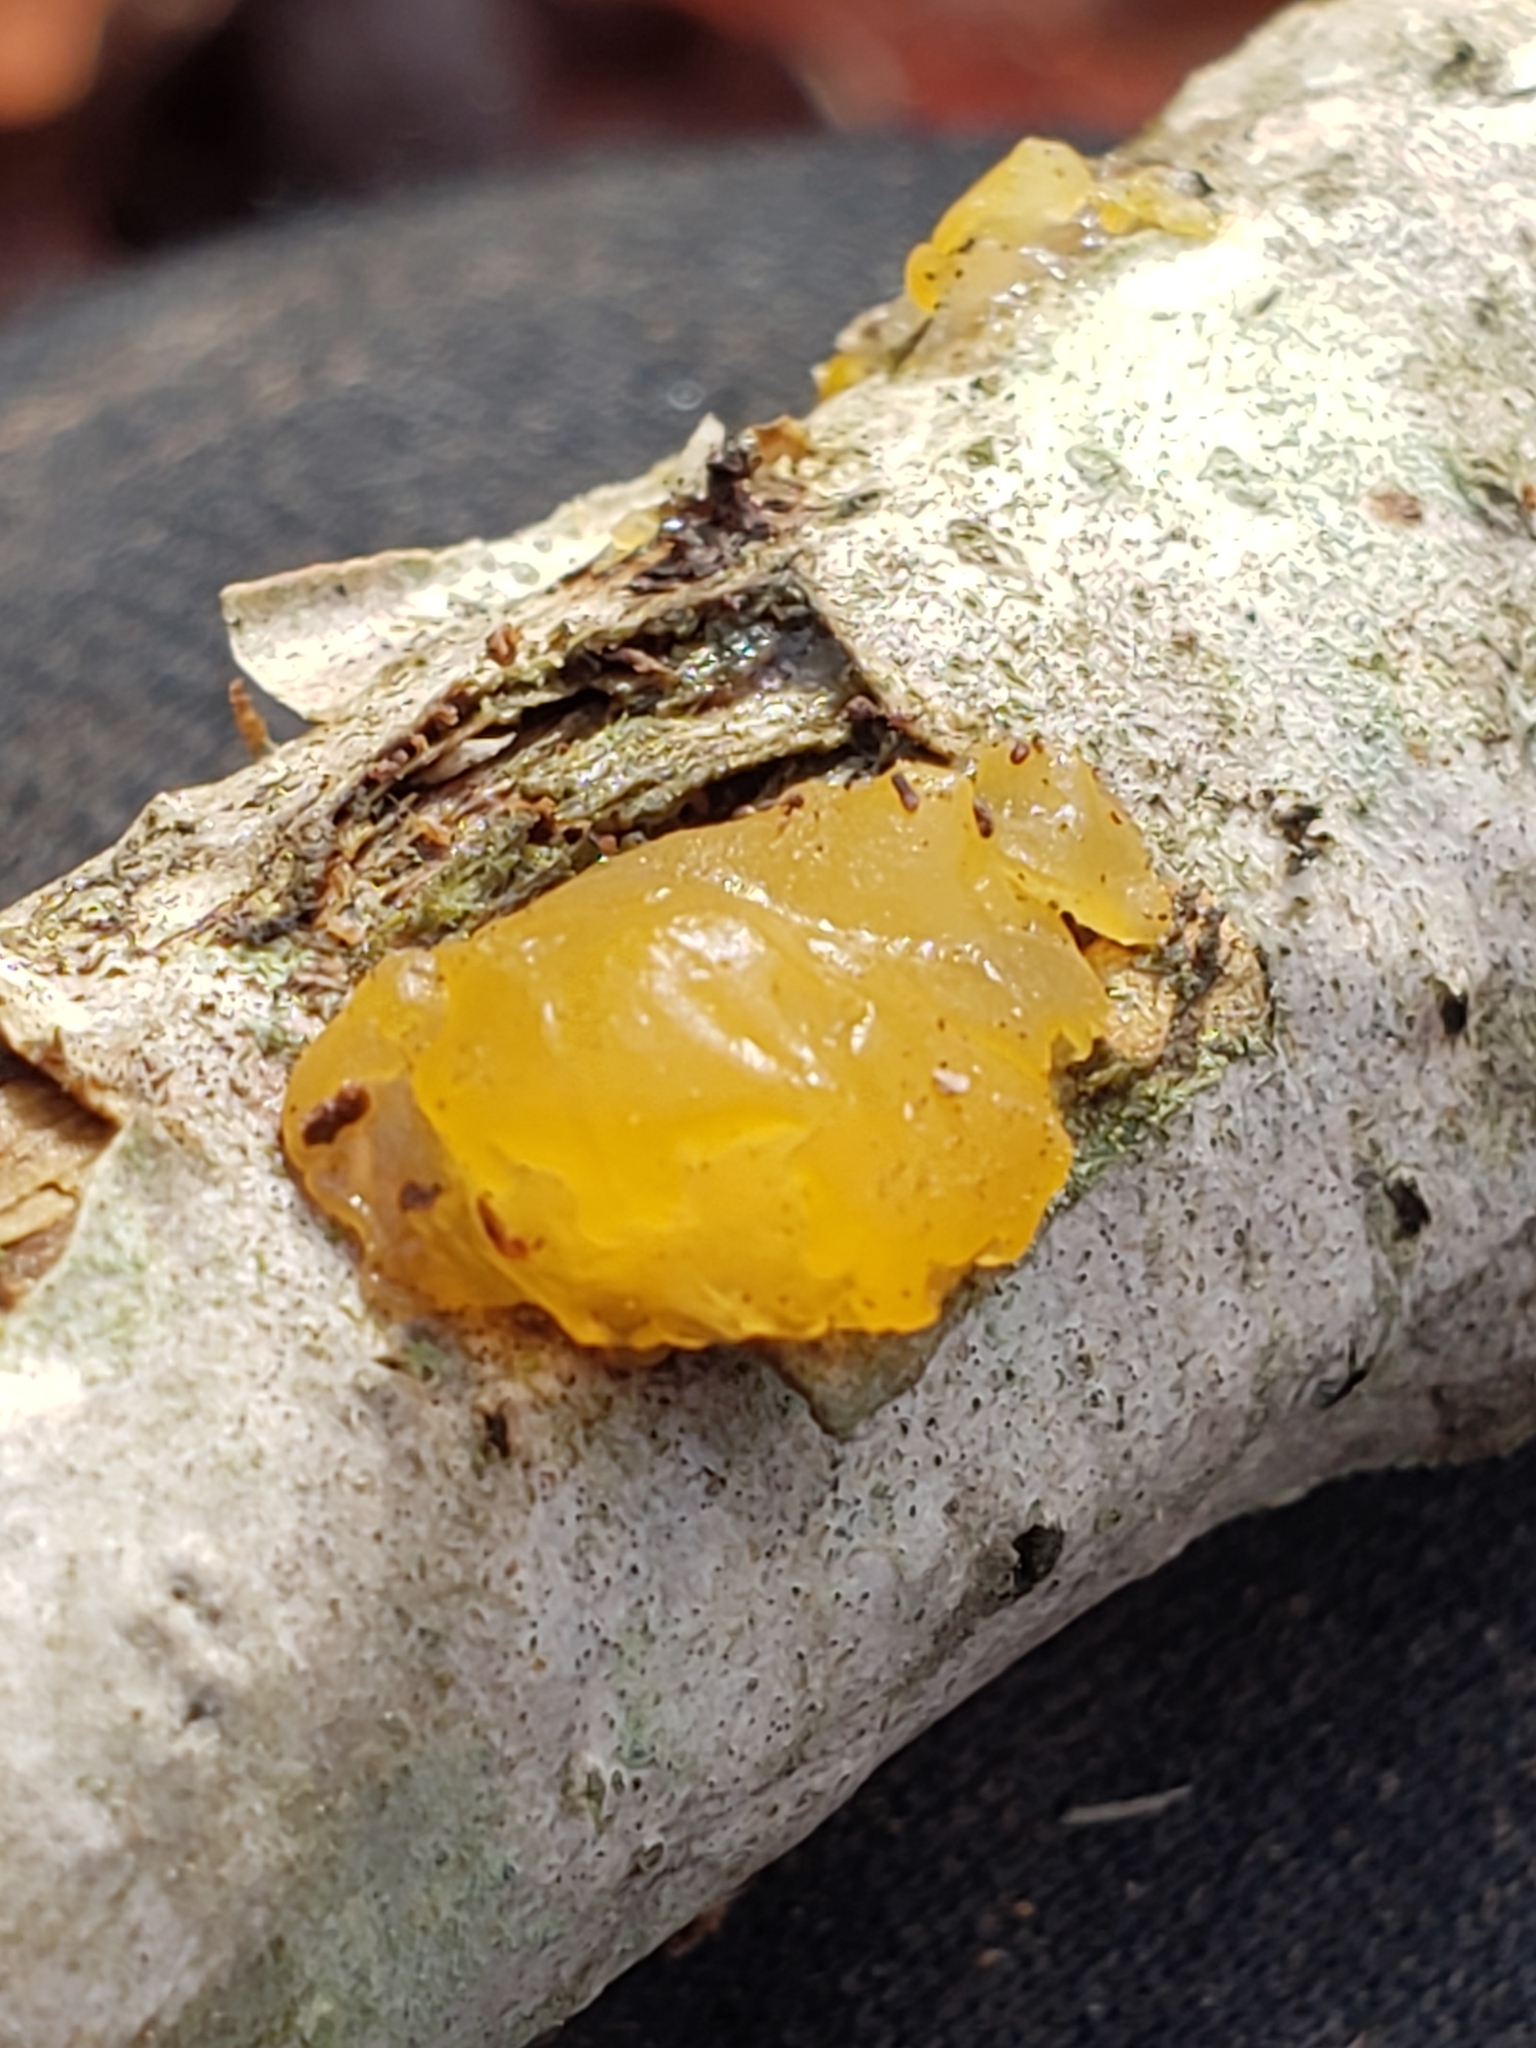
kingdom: Fungi
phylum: Basidiomycota
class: Tremellomycetes
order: Tremellales
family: Tremellaceae
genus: Tremella
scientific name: Tremella mesenterica
